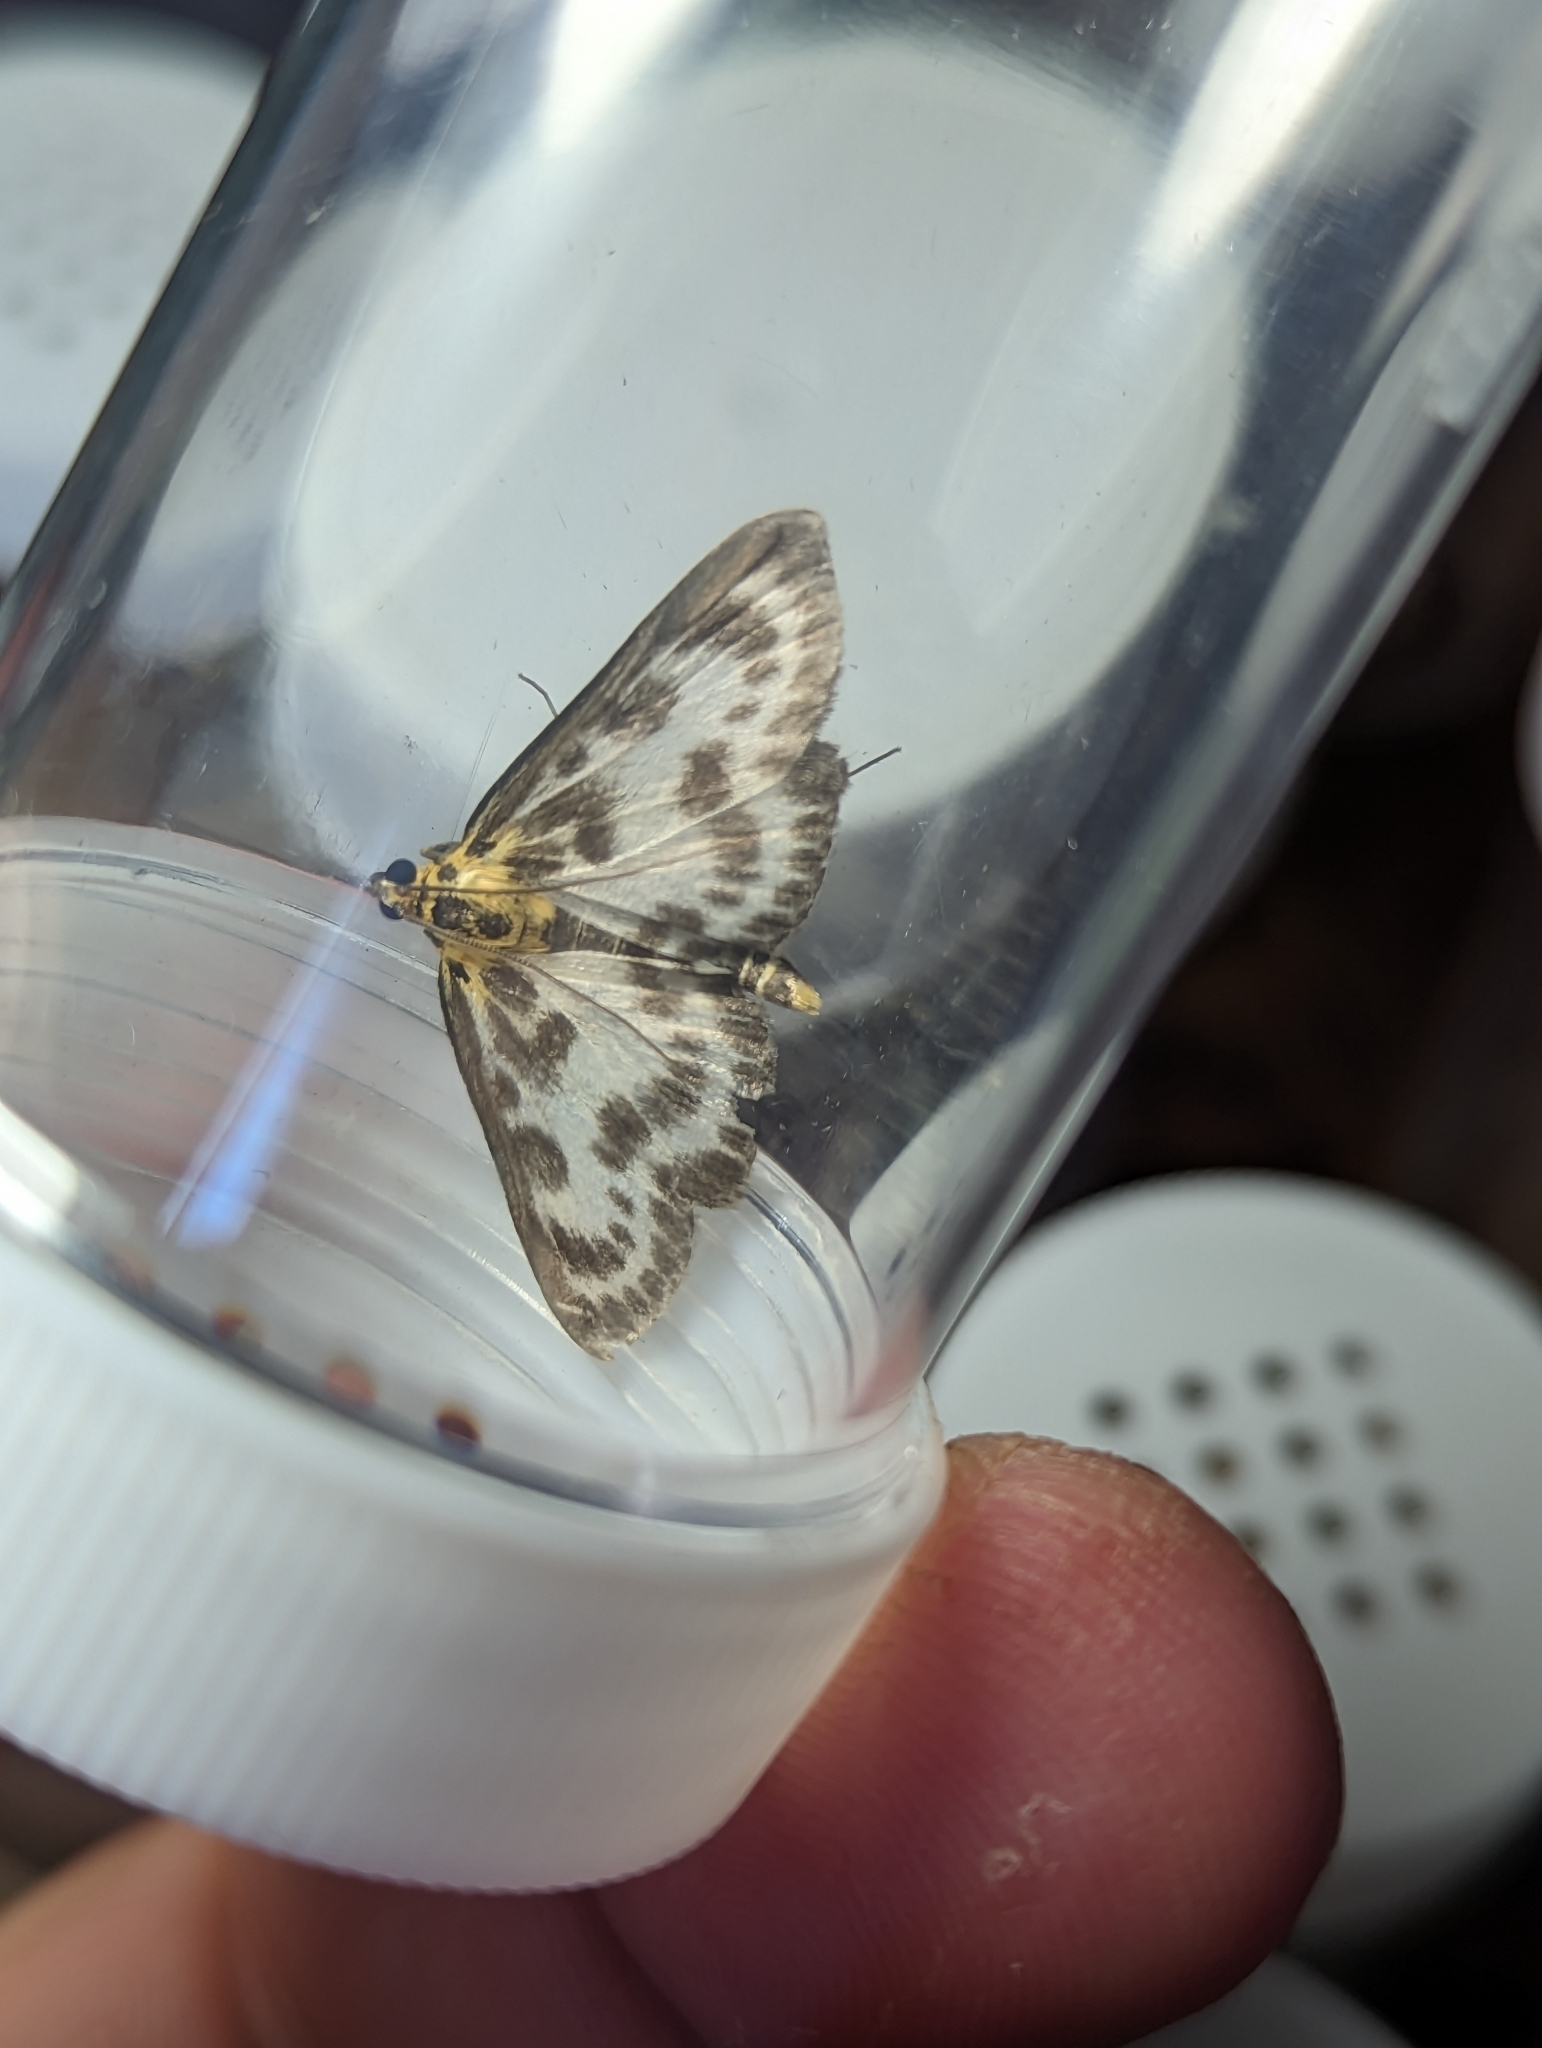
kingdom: Animalia
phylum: Arthropoda
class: Insecta
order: Lepidoptera
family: Crambidae
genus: Anania
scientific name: Anania hortulata
